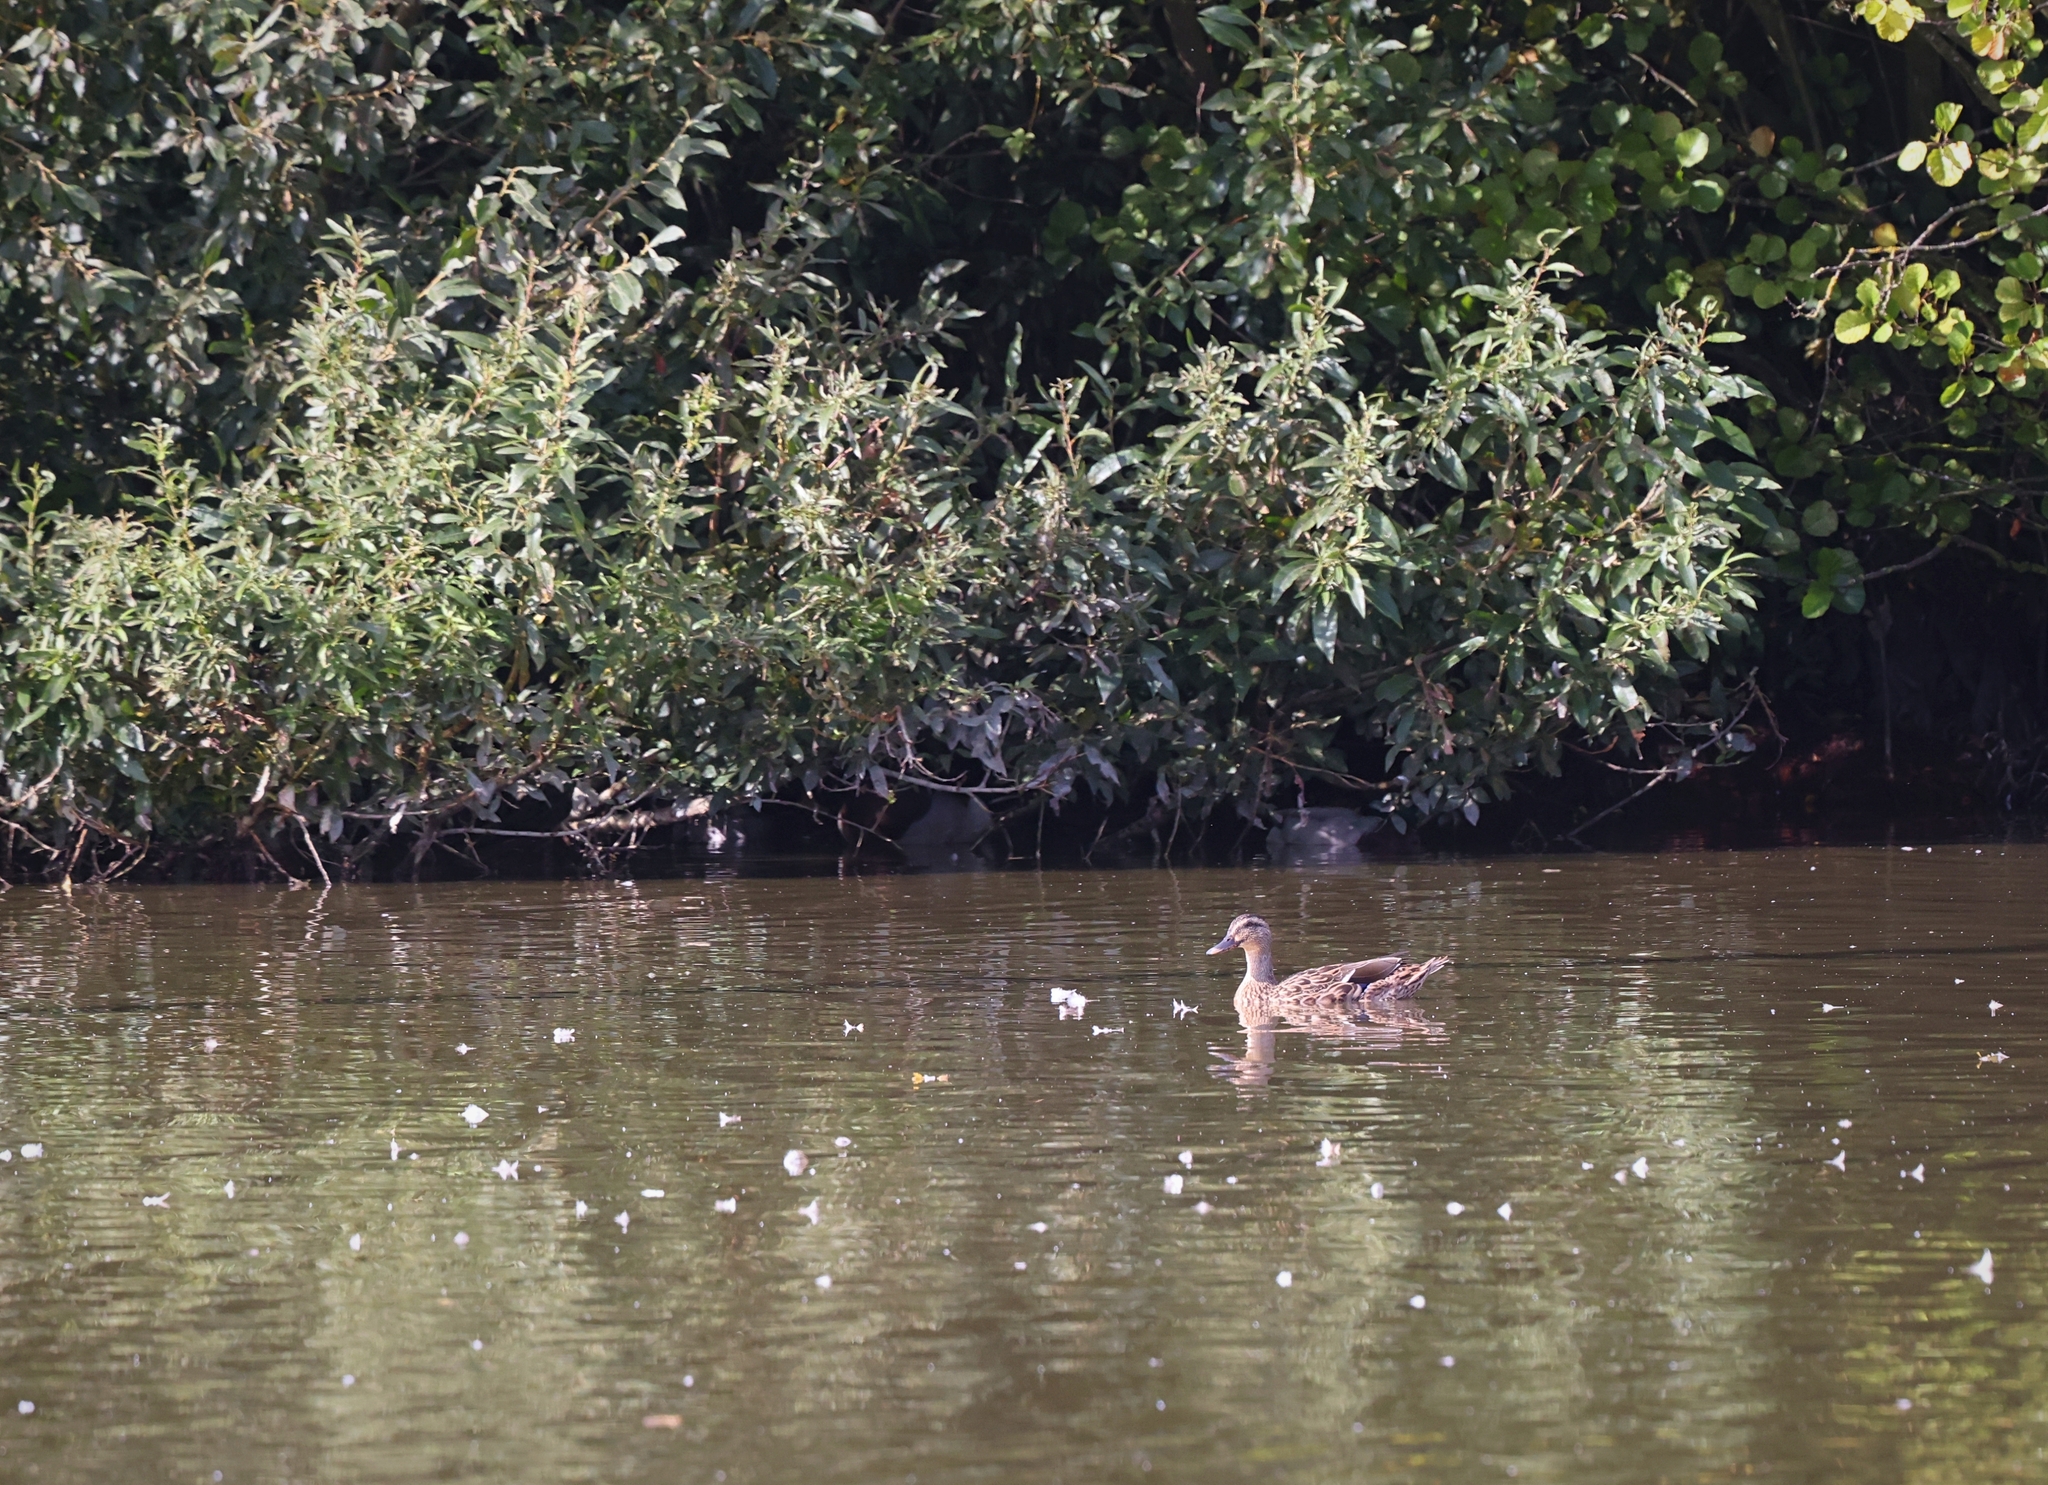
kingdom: Animalia
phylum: Chordata
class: Aves
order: Anseriformes
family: Anatidae
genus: Anas
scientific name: Anas platyrhynchos
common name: Mallard
